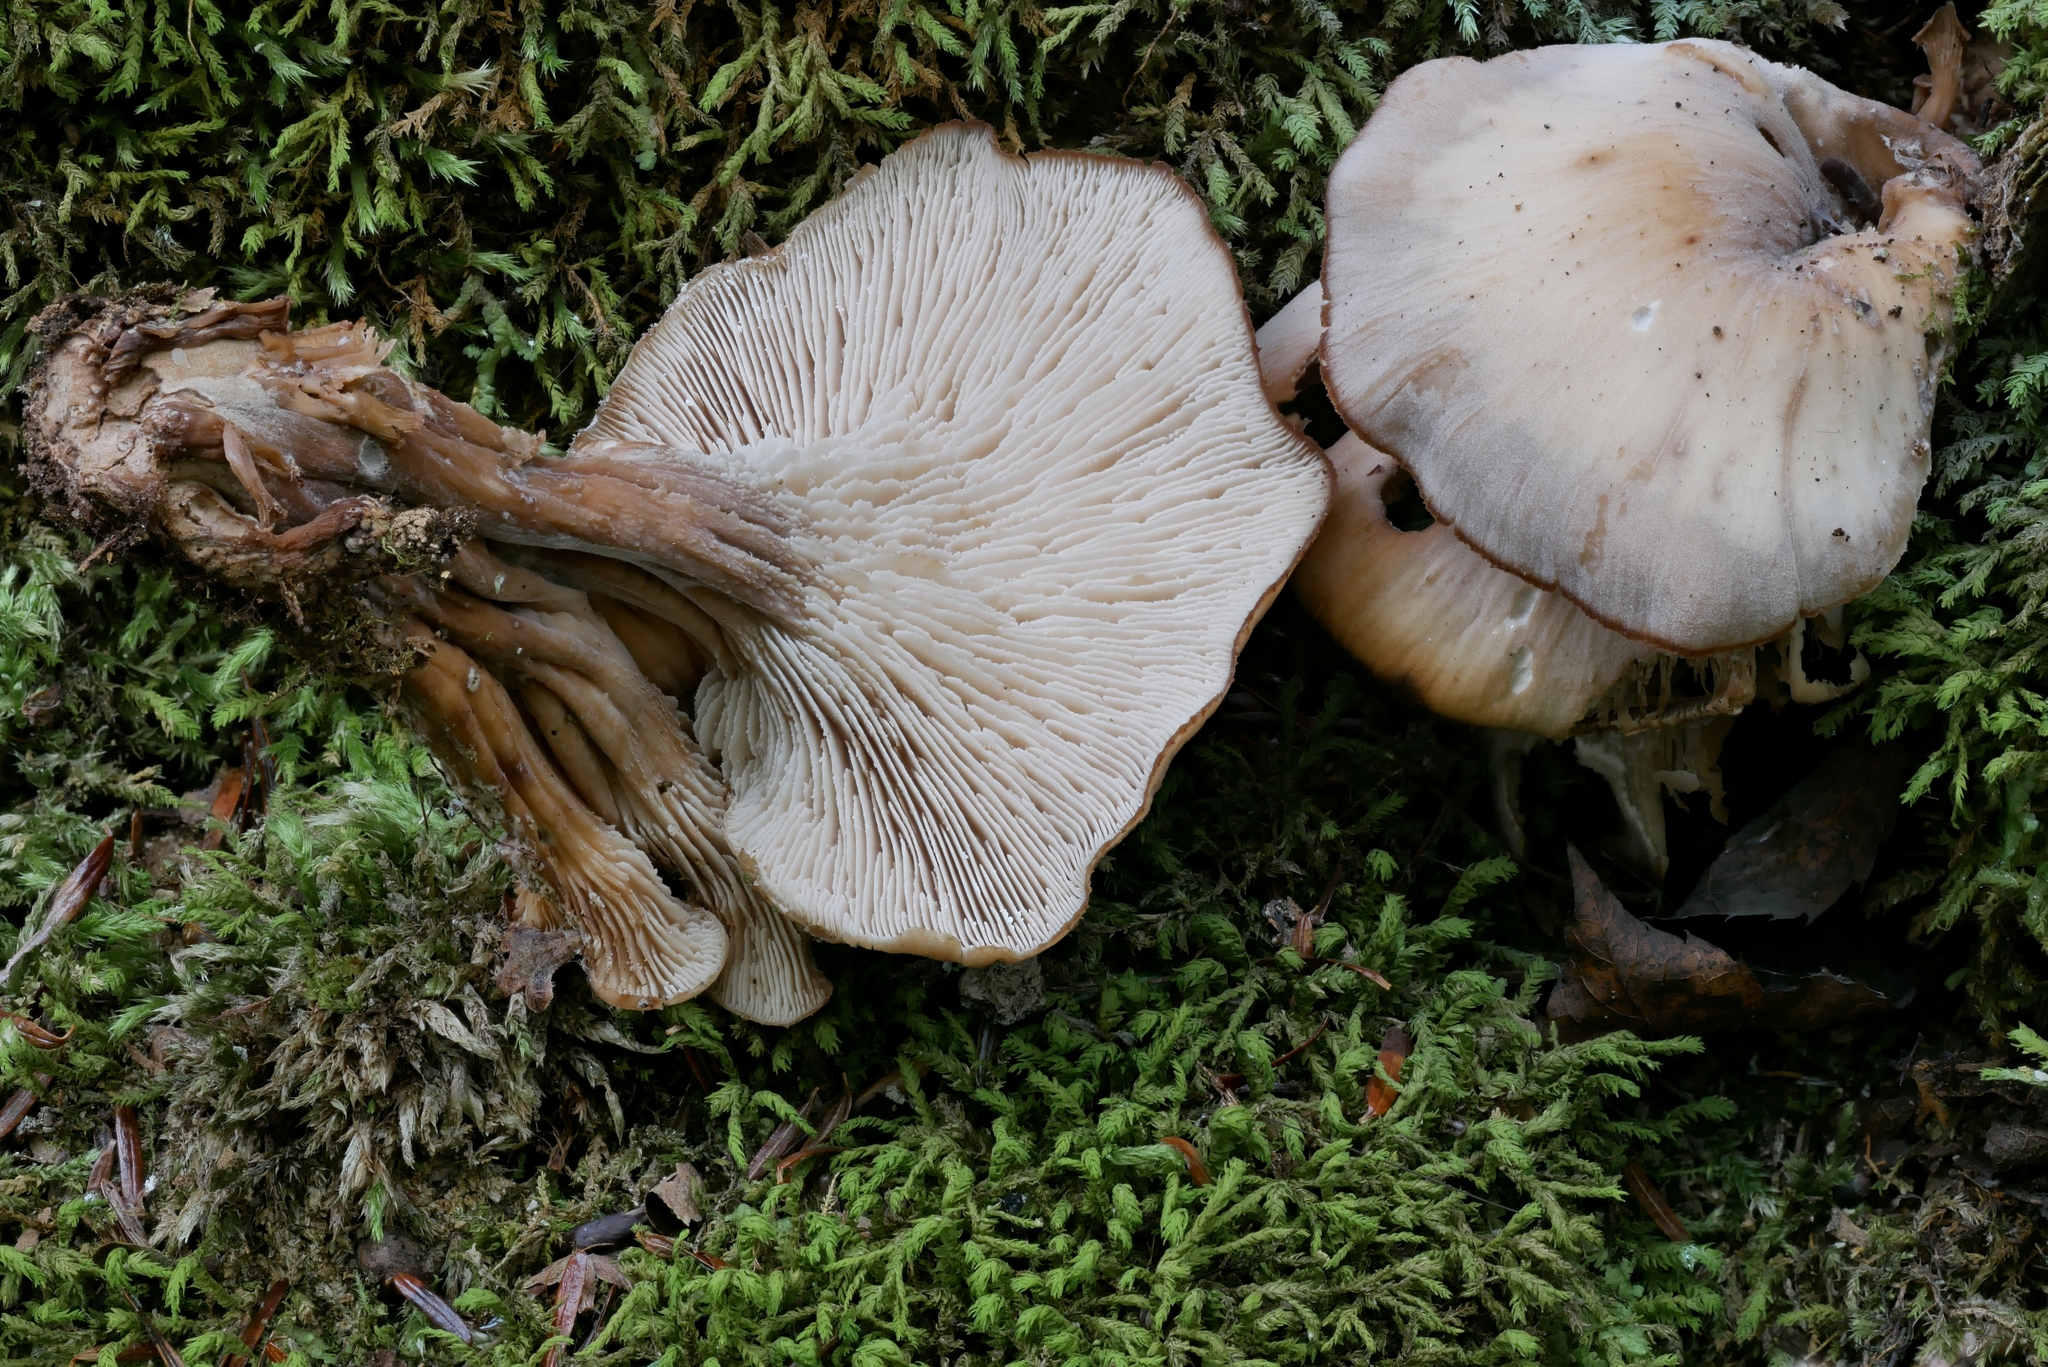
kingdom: Fungi
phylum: Basidiomycota
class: Agaricomycetes
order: Russulales
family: Auriscalpiaceae
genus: Lentinellus
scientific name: Lentinellus micheneri
